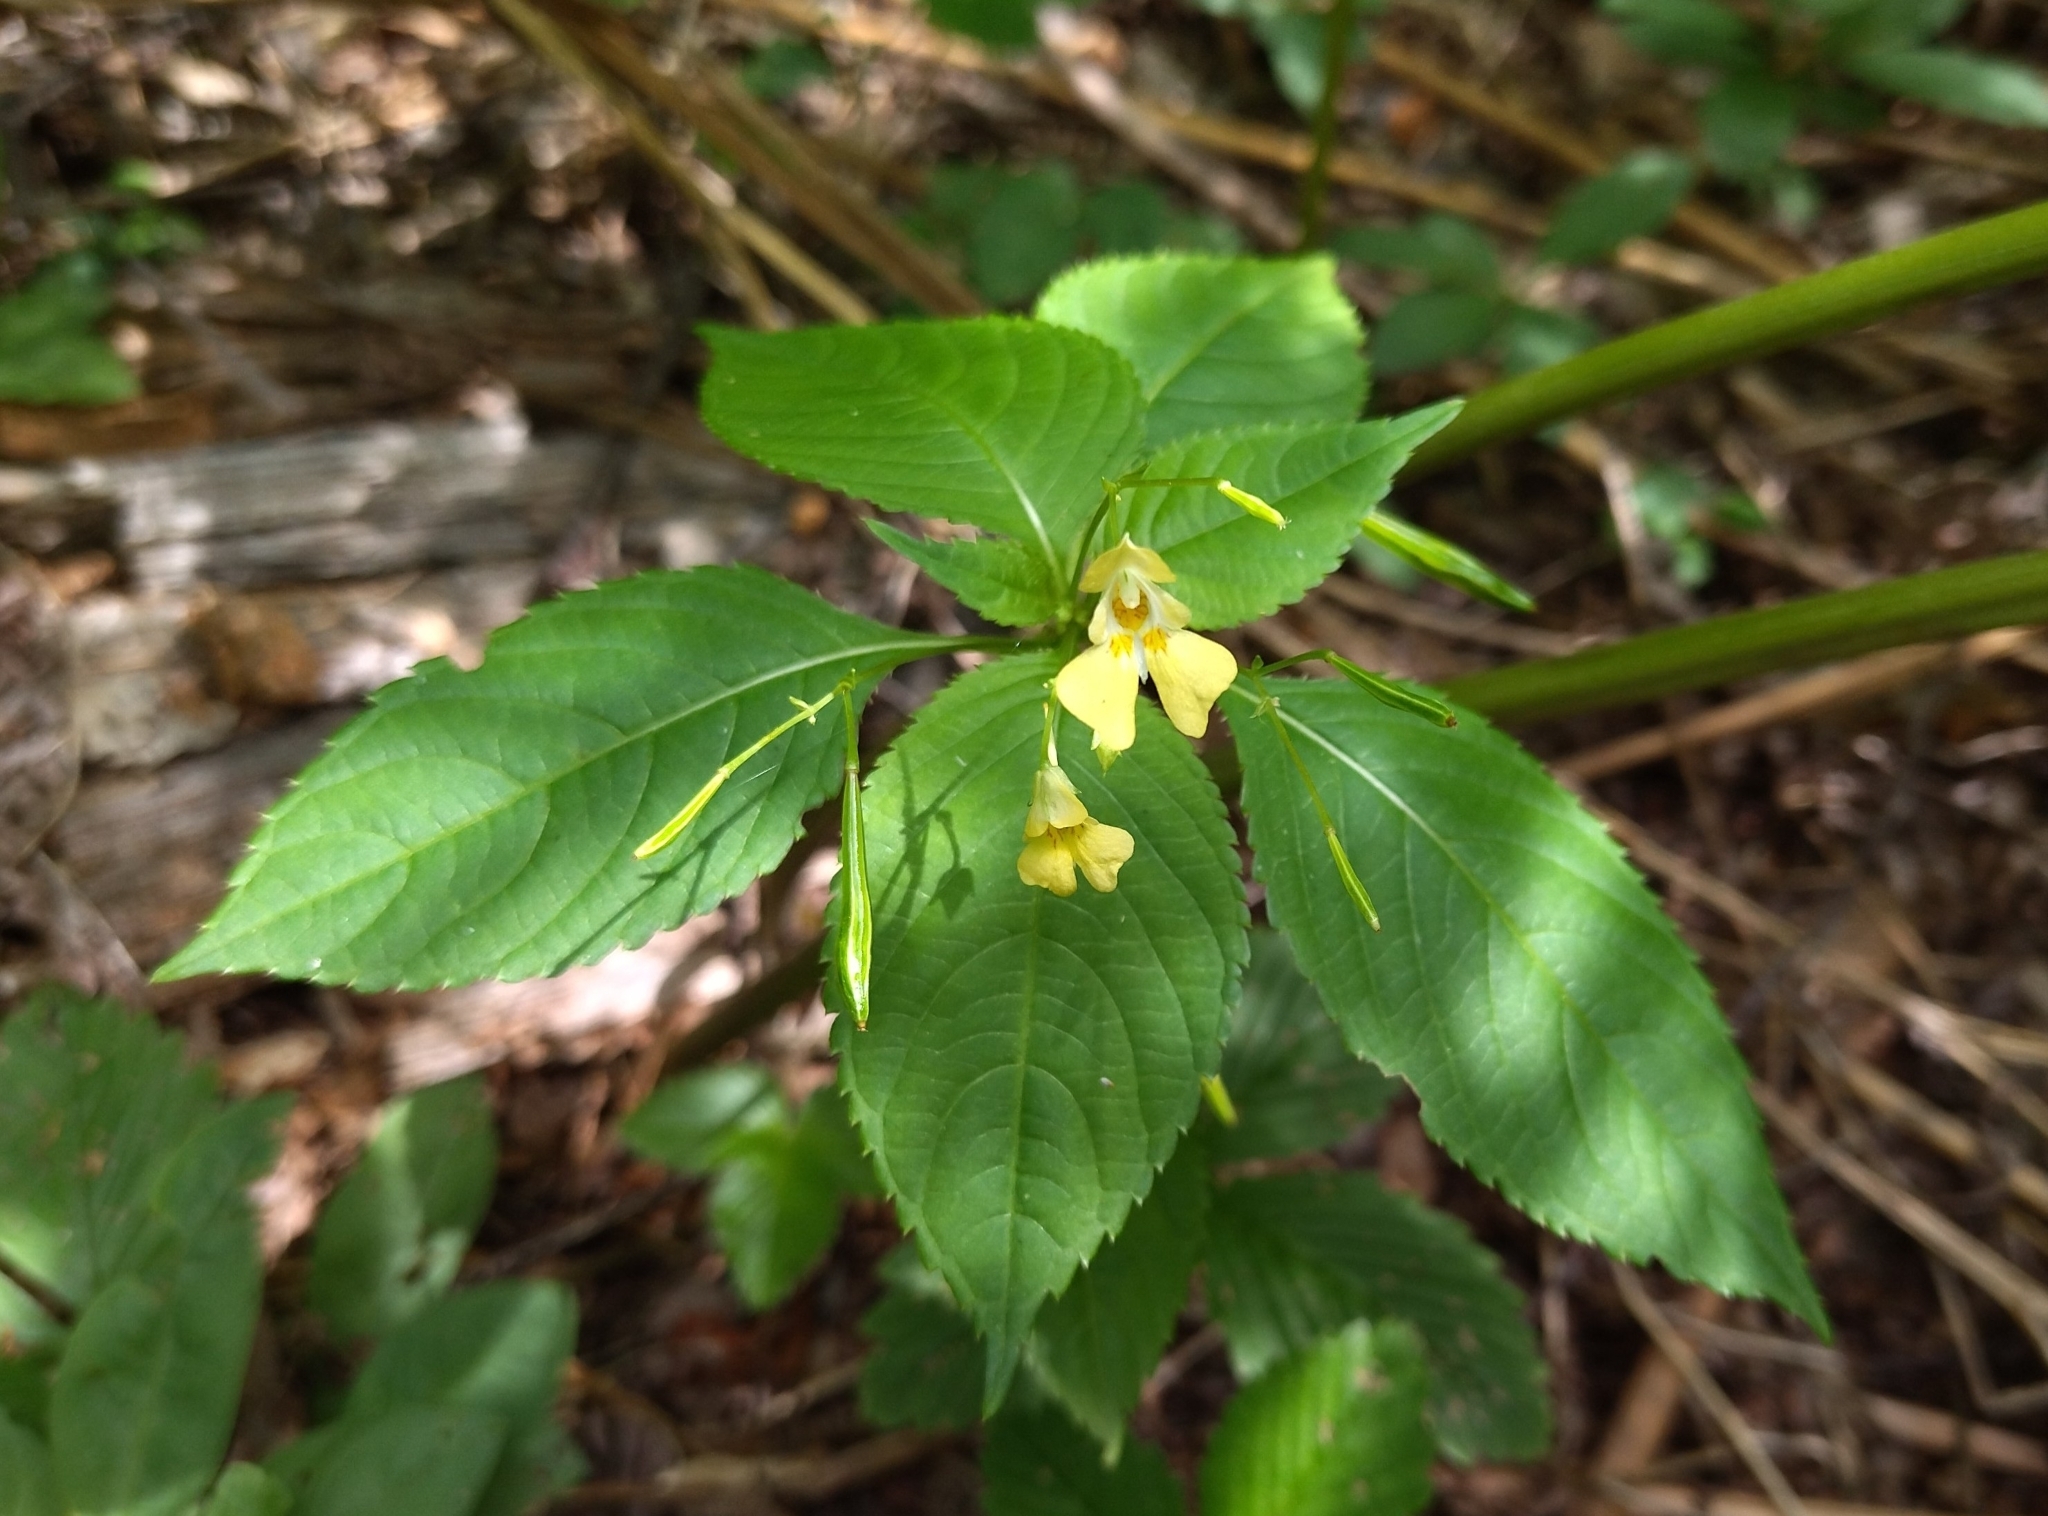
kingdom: Plantae
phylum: Tracheophyta
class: Magnoliopsida
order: Ericales
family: Balsaminaceae
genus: Impatiens
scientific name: Impatiens parviflora
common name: Small balsam
